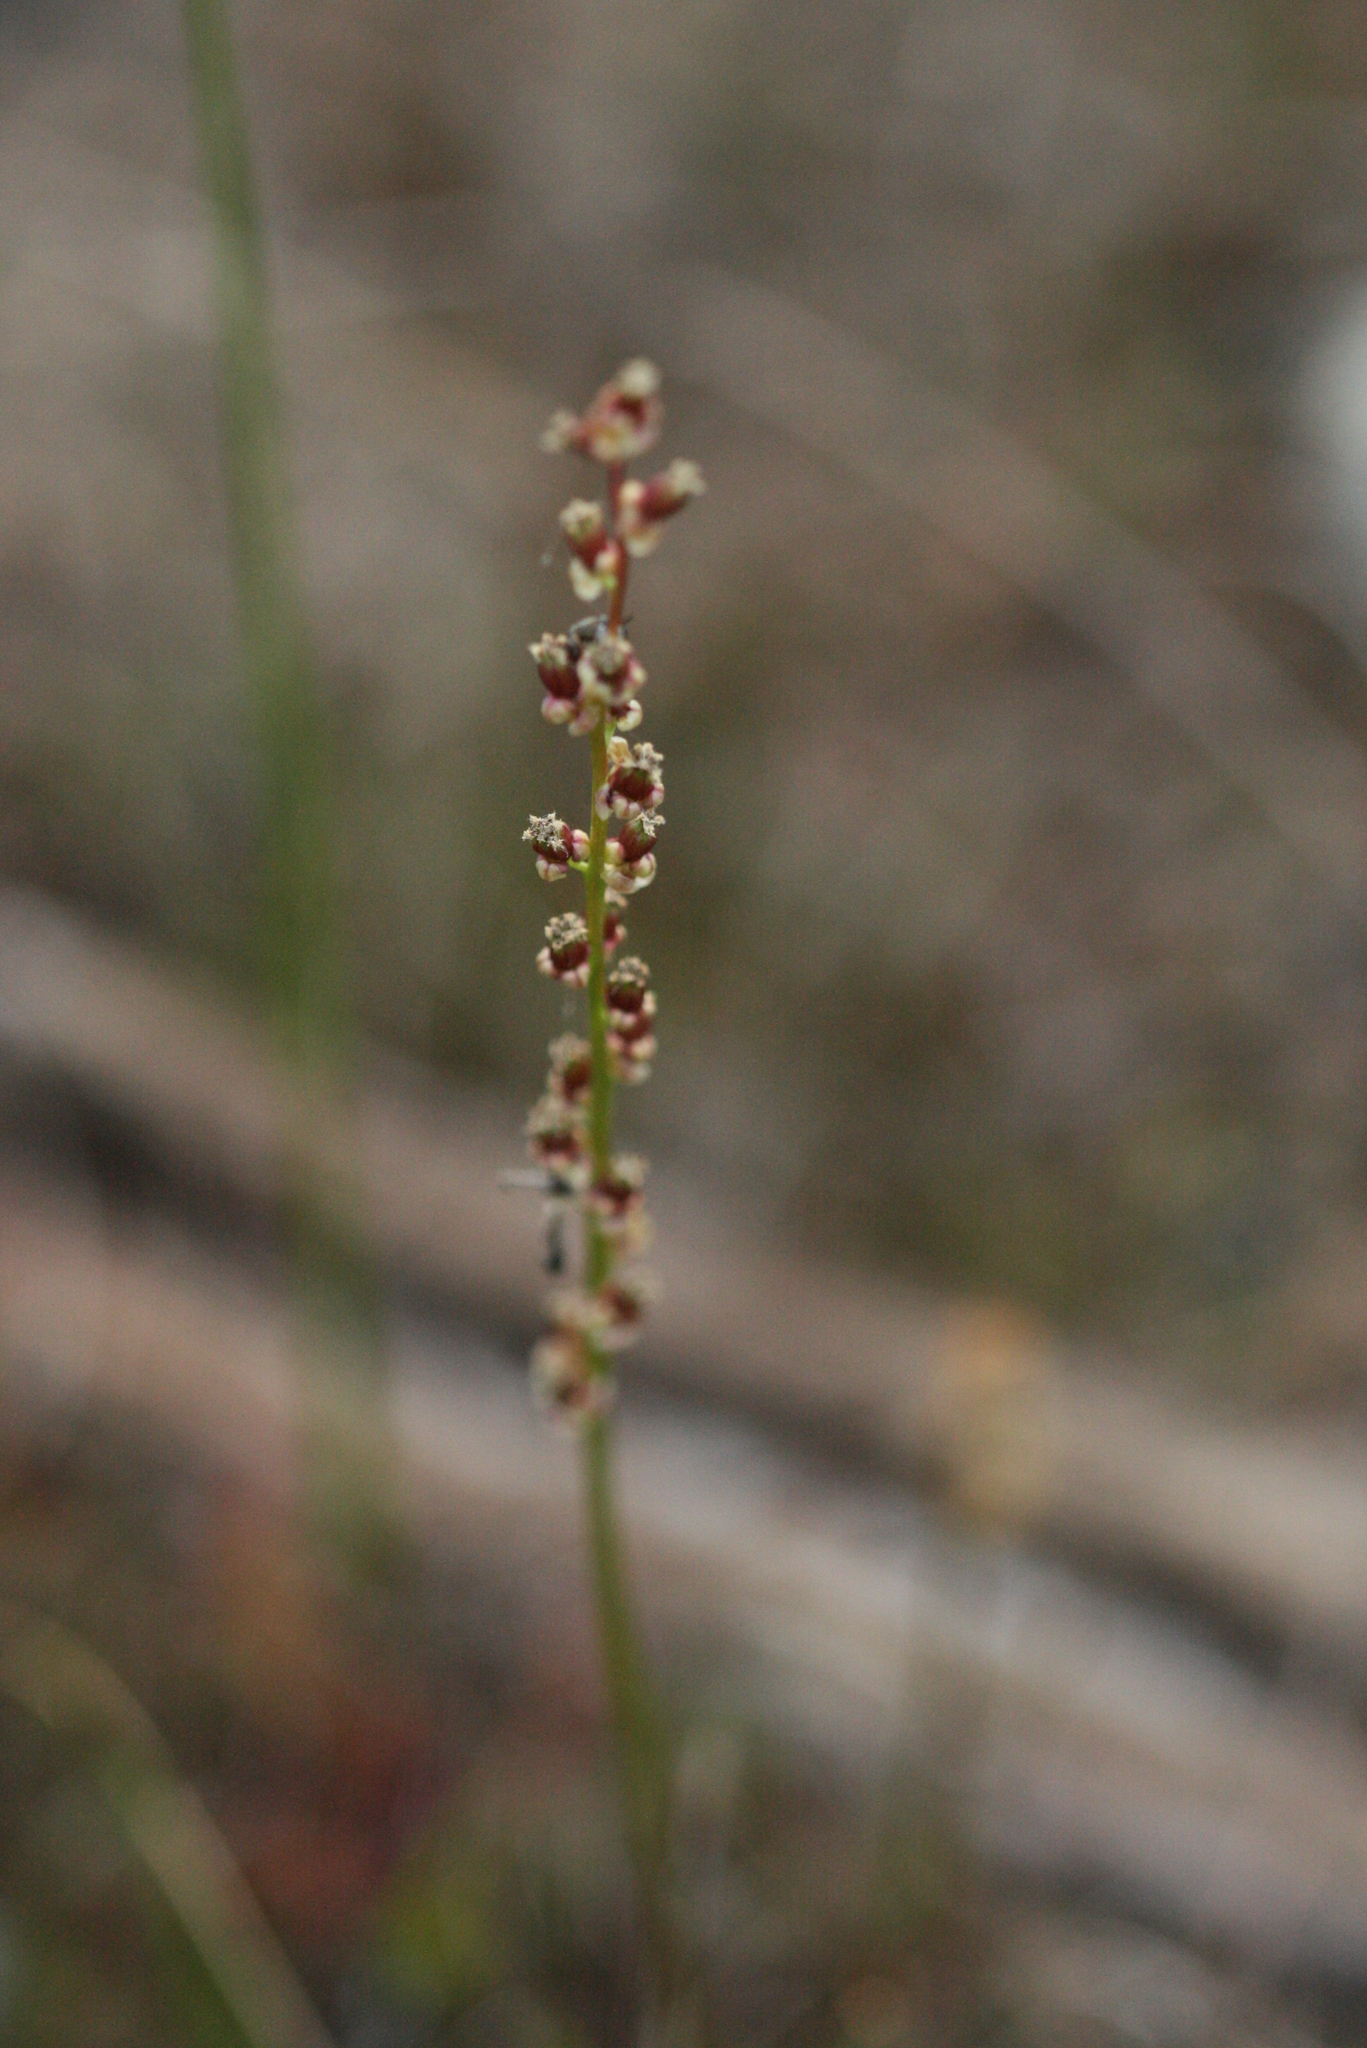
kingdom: Plantae
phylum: Tracheophyta
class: Liliopsida
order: Alismatales
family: Juncaginaceae
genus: Triglochin
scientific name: Triglochin maritima
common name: Sea arrowgrass
